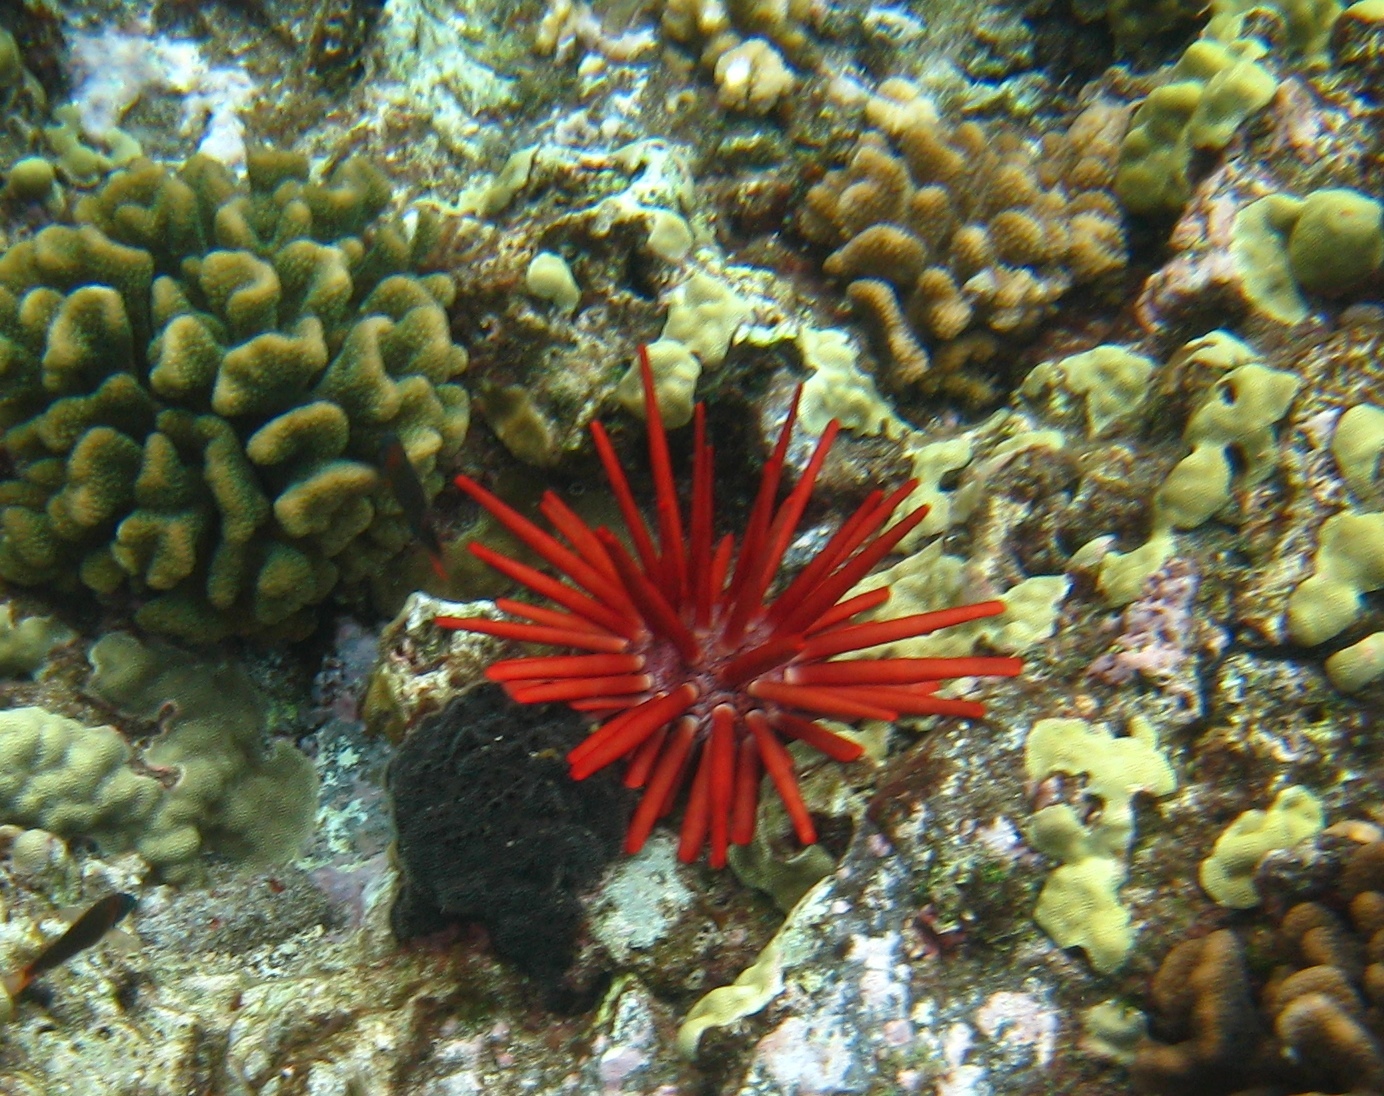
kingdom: Animalia
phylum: Echinodermata
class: Echinoidea
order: Camarodonta
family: Echinometridae
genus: Heterocentrotus
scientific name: Heterocentrotus mamillatus
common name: Slate pencil urchin
